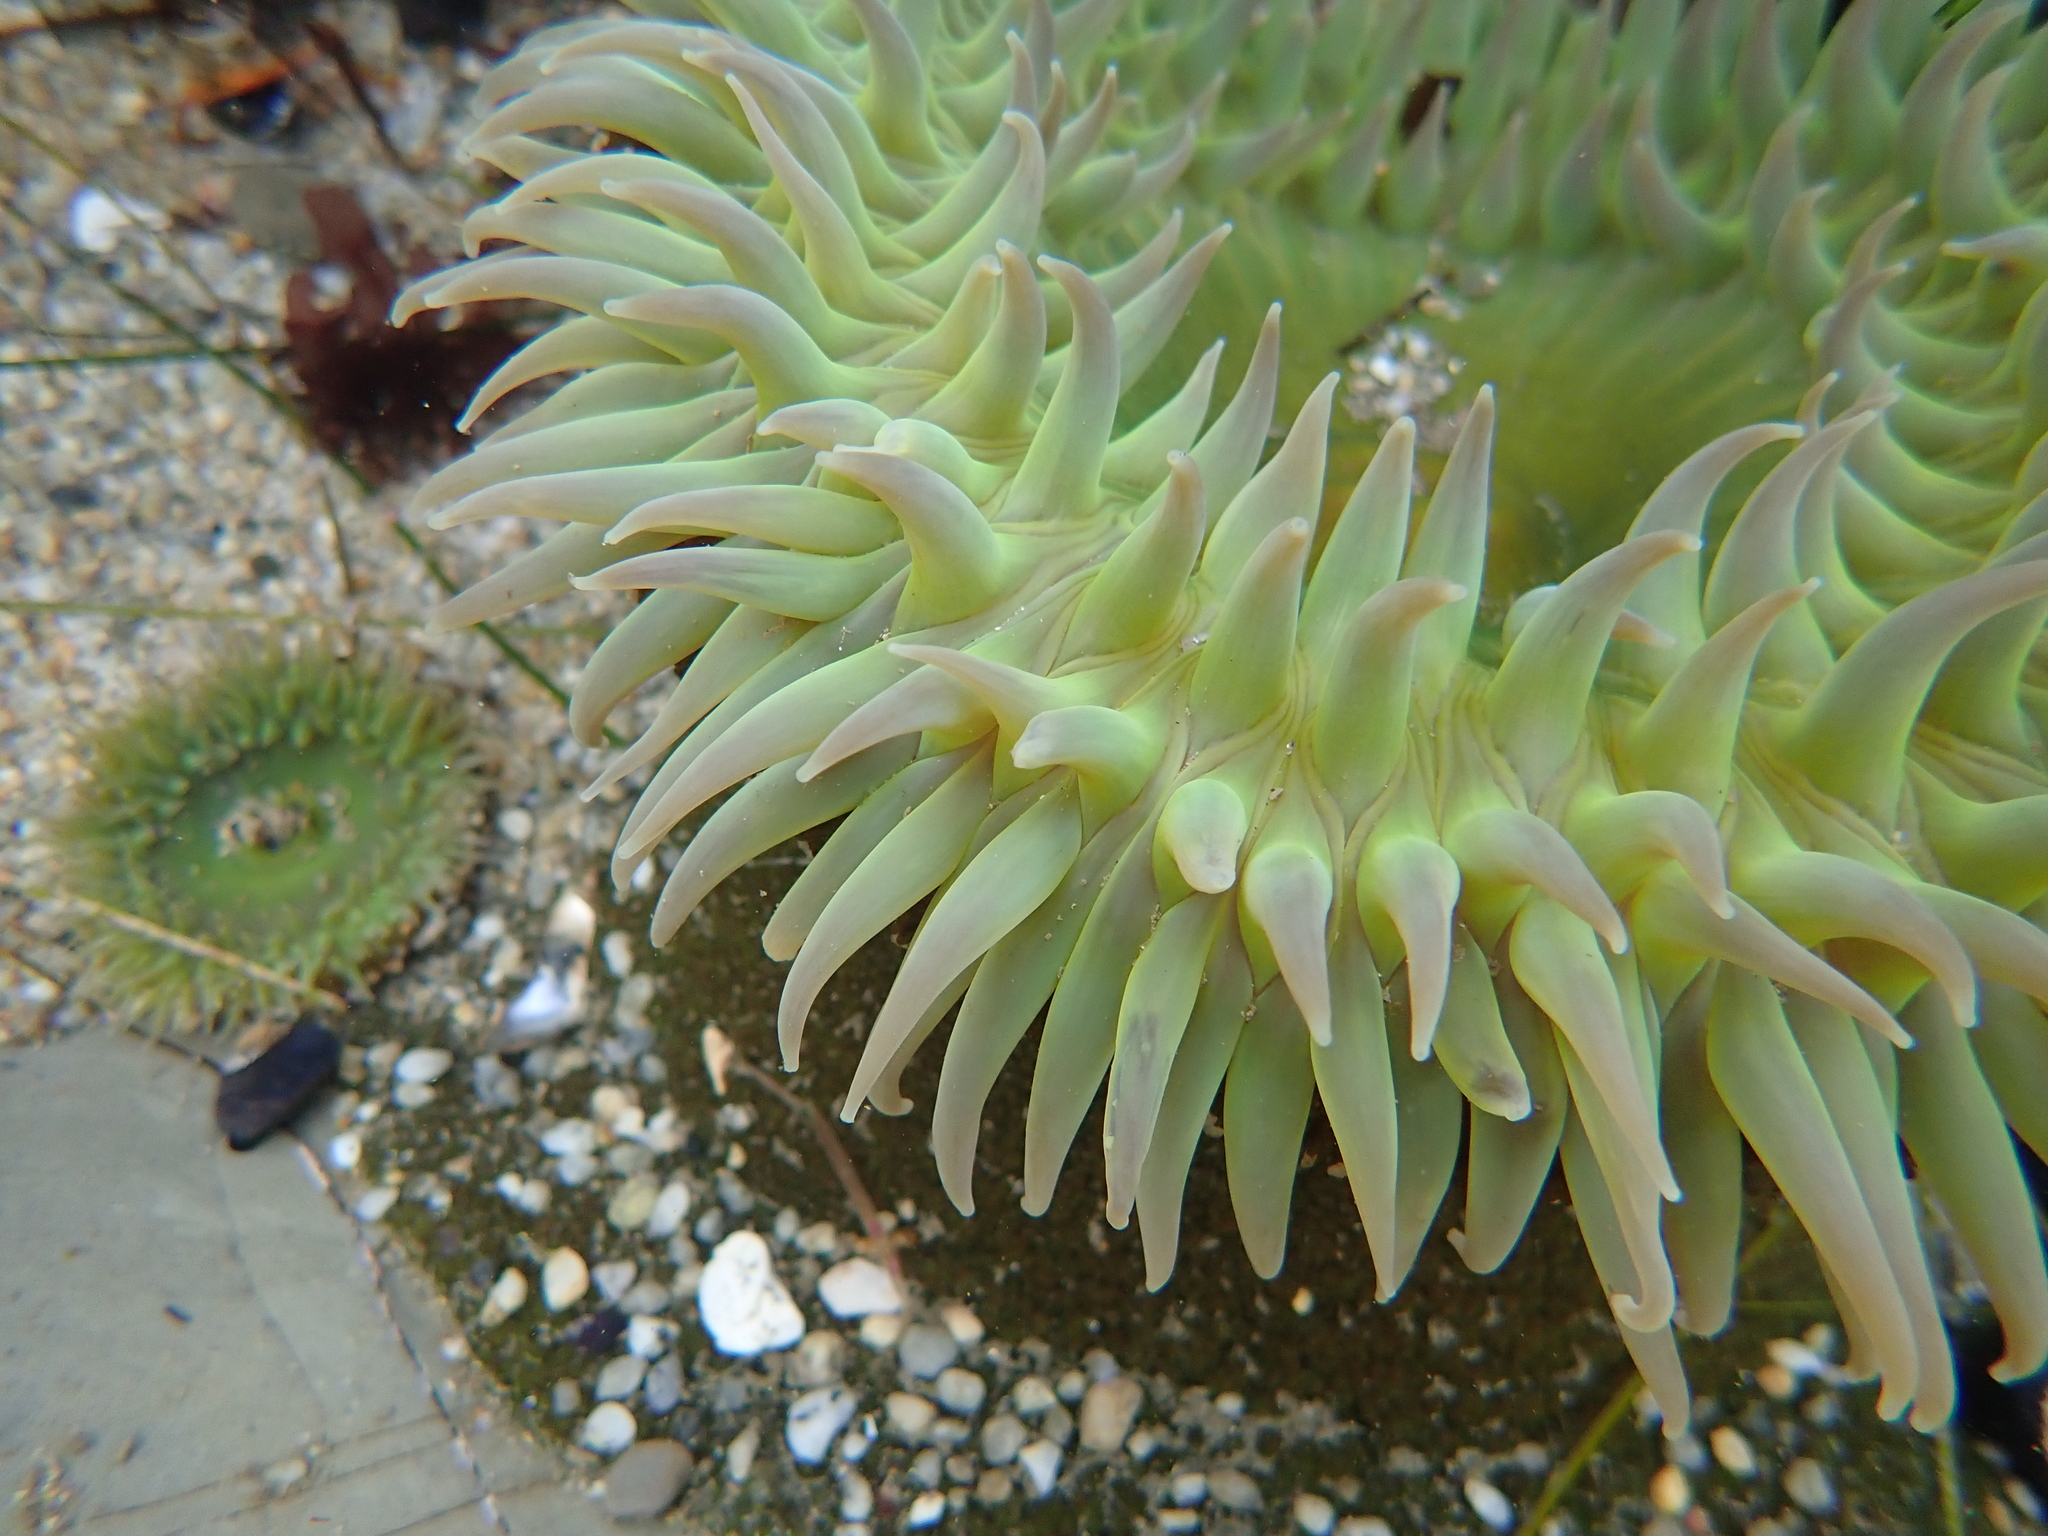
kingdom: Animalia
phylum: Cnidaria
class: Anthozoa
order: Actiniaria
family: Actiniidae
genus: Anthopleura
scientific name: Anthopleura xanthogrammica
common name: Giant green anemone
